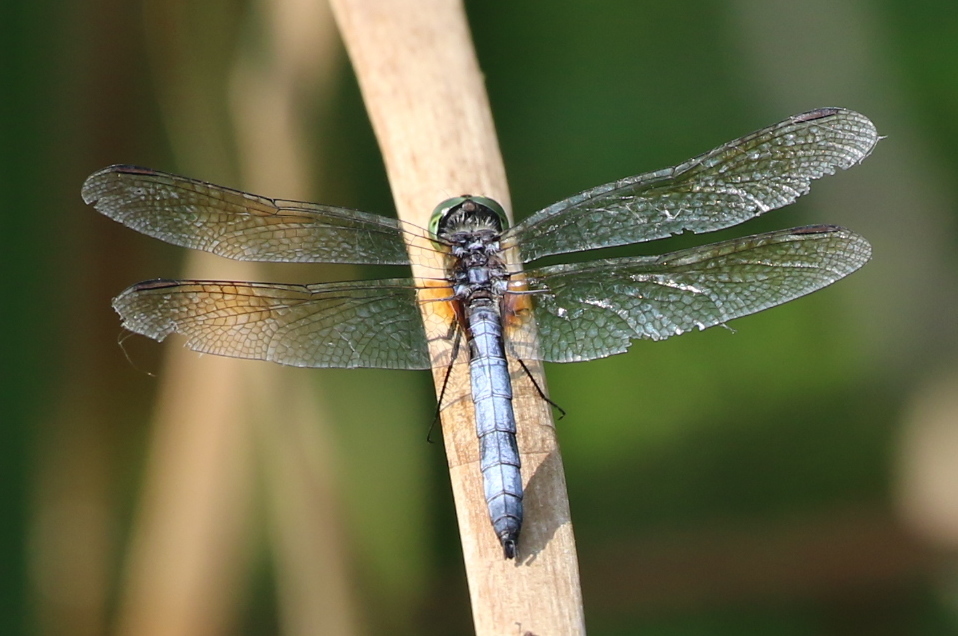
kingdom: Animalia
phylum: Arthropoda
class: Insecta
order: Odonata
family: Libellulidae
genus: Pachydiplax
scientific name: Pachydiplax longipennis
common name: Blue dasher
